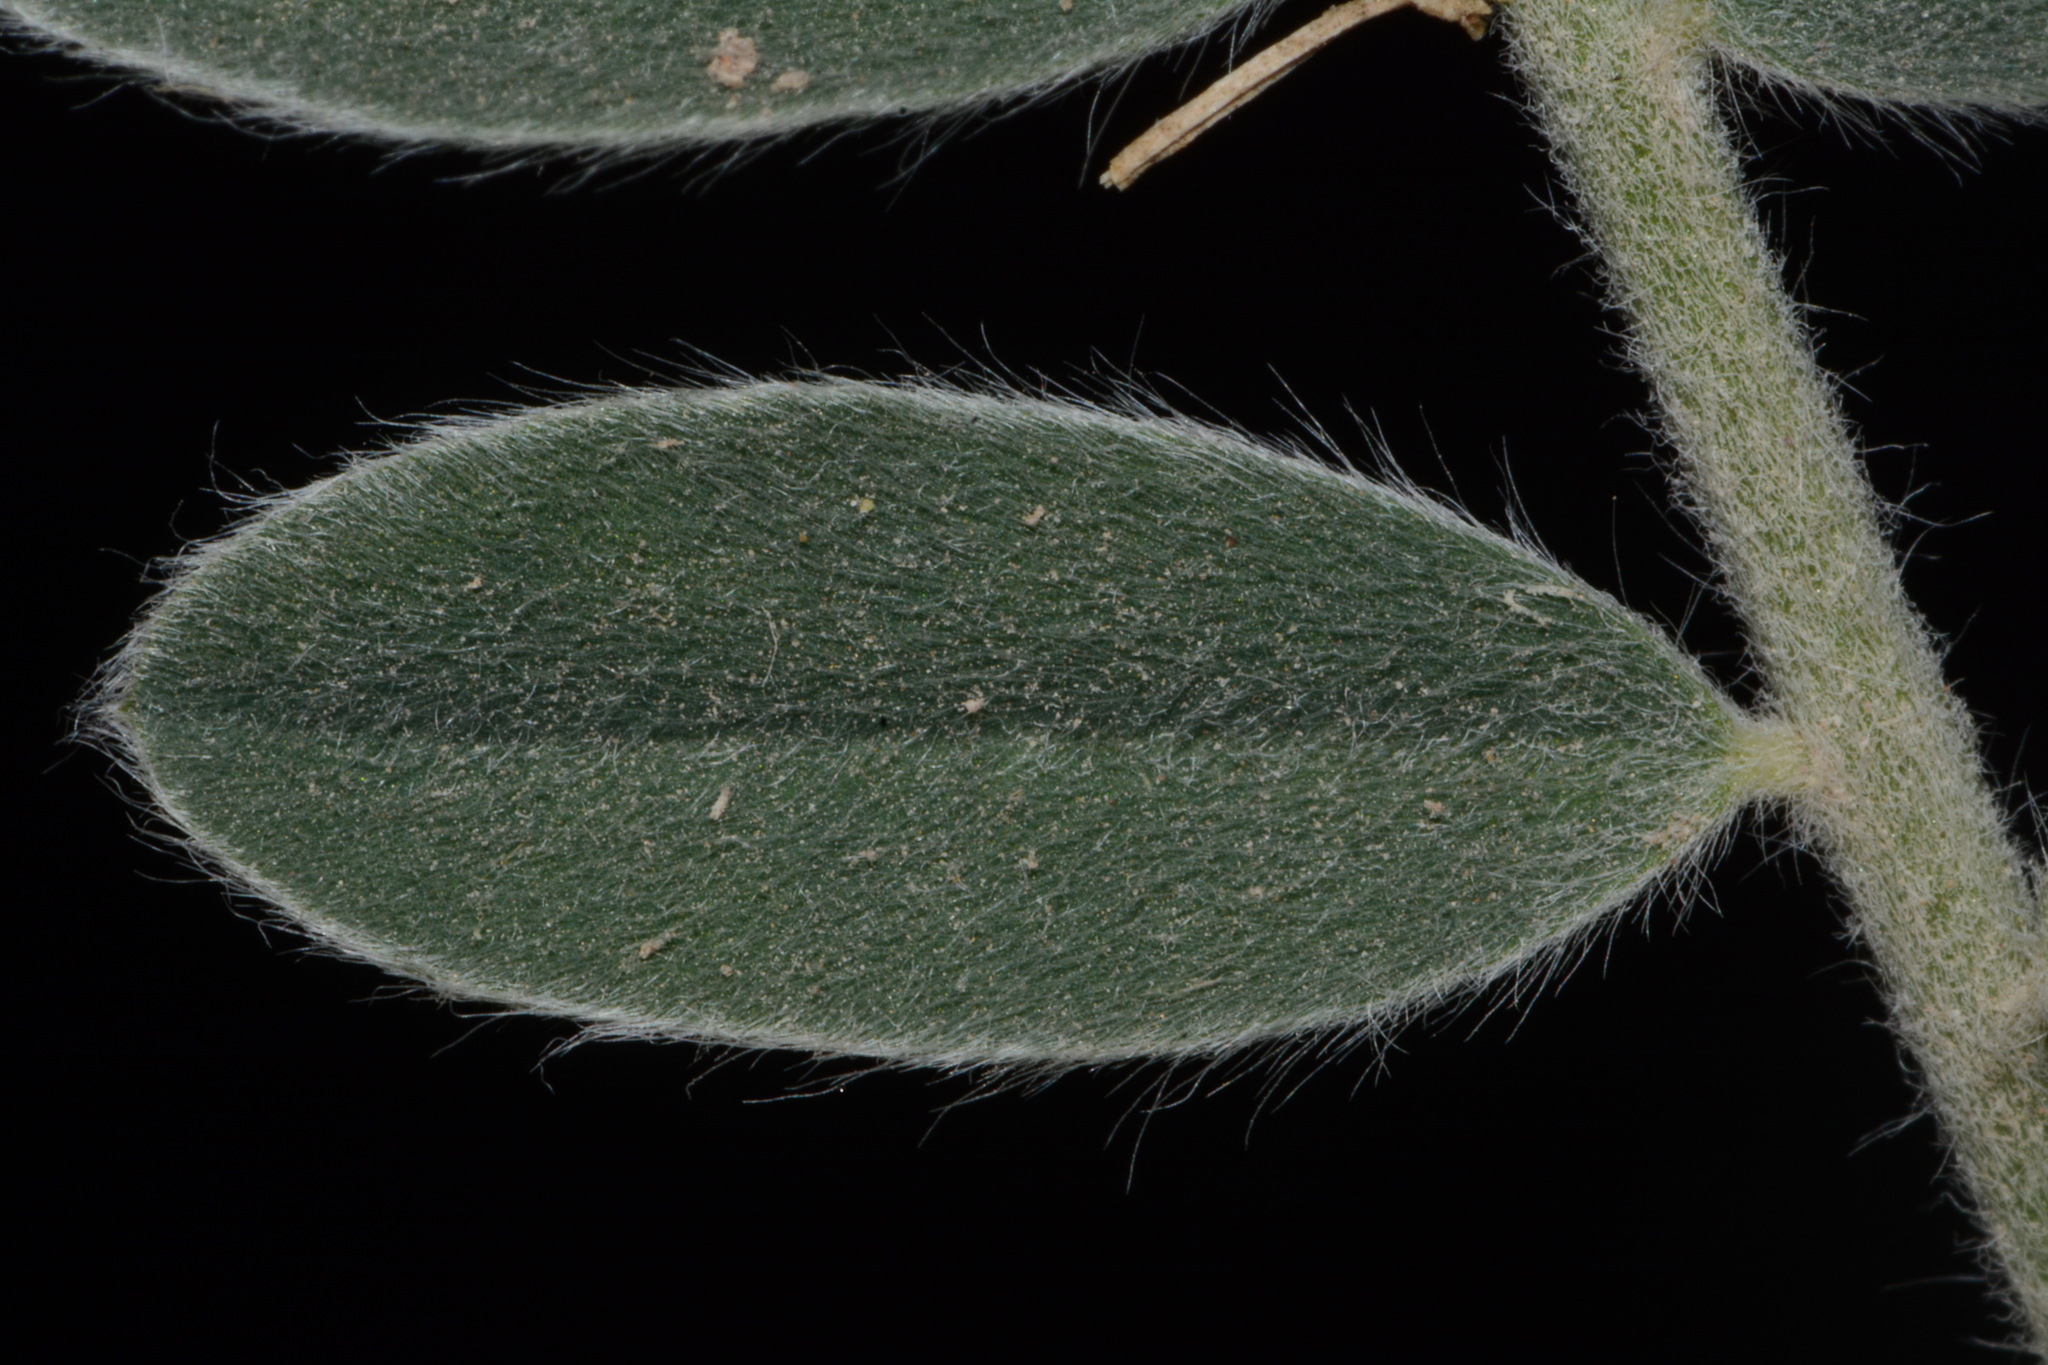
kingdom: Plantae
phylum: Tracheophyta
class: Magnoliopsida
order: Fabales
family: Fabaceae
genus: Astragalus
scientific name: Astragalus mollissimus
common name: Woolly locoweed
